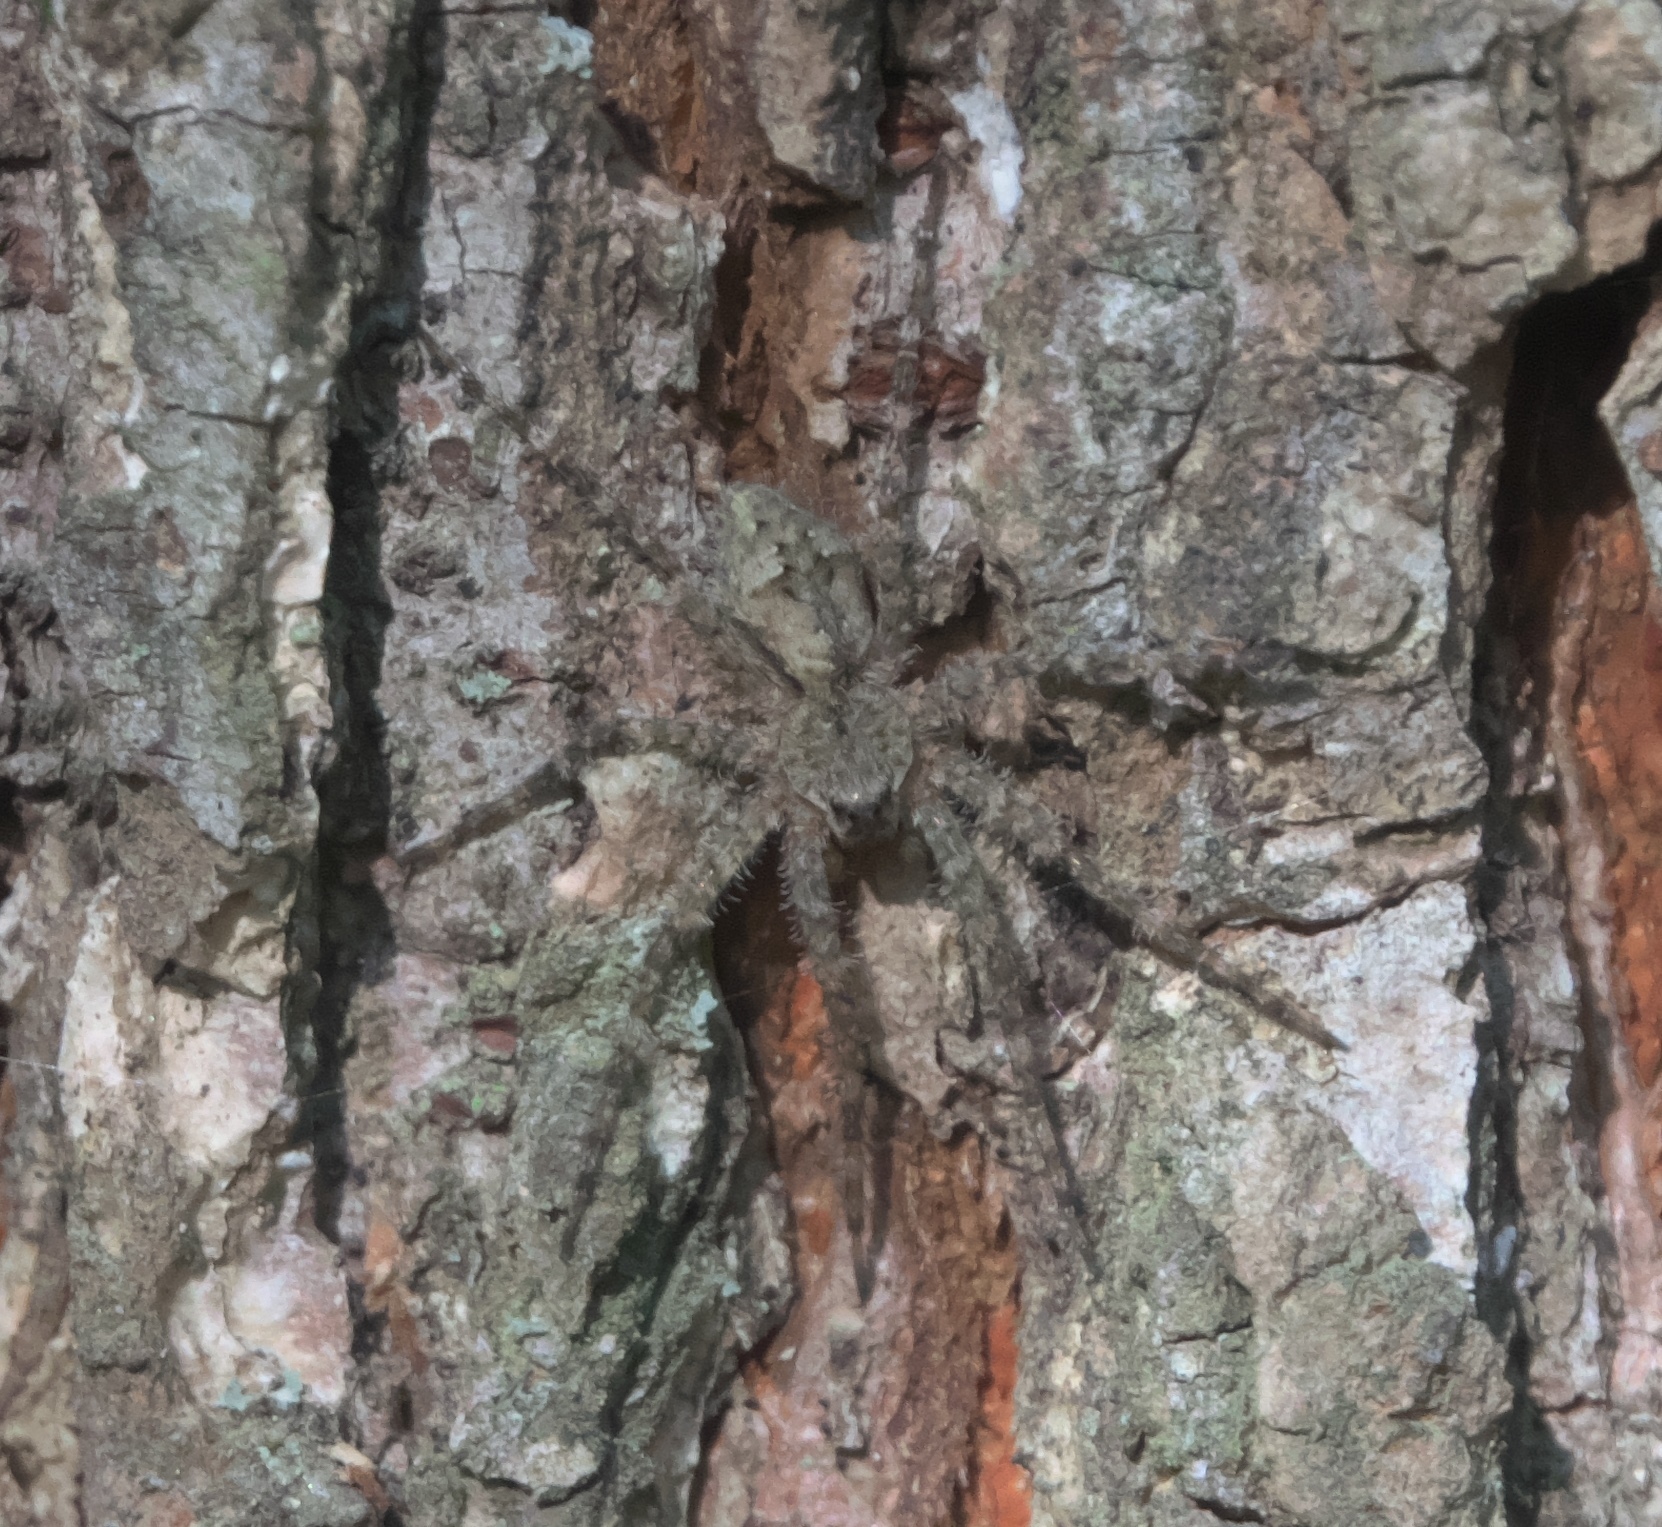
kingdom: Animalia
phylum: Arthropoda
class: Arachnida
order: Araneae
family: Pisauridae
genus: Dolomedes
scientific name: Dolomedes albineus
